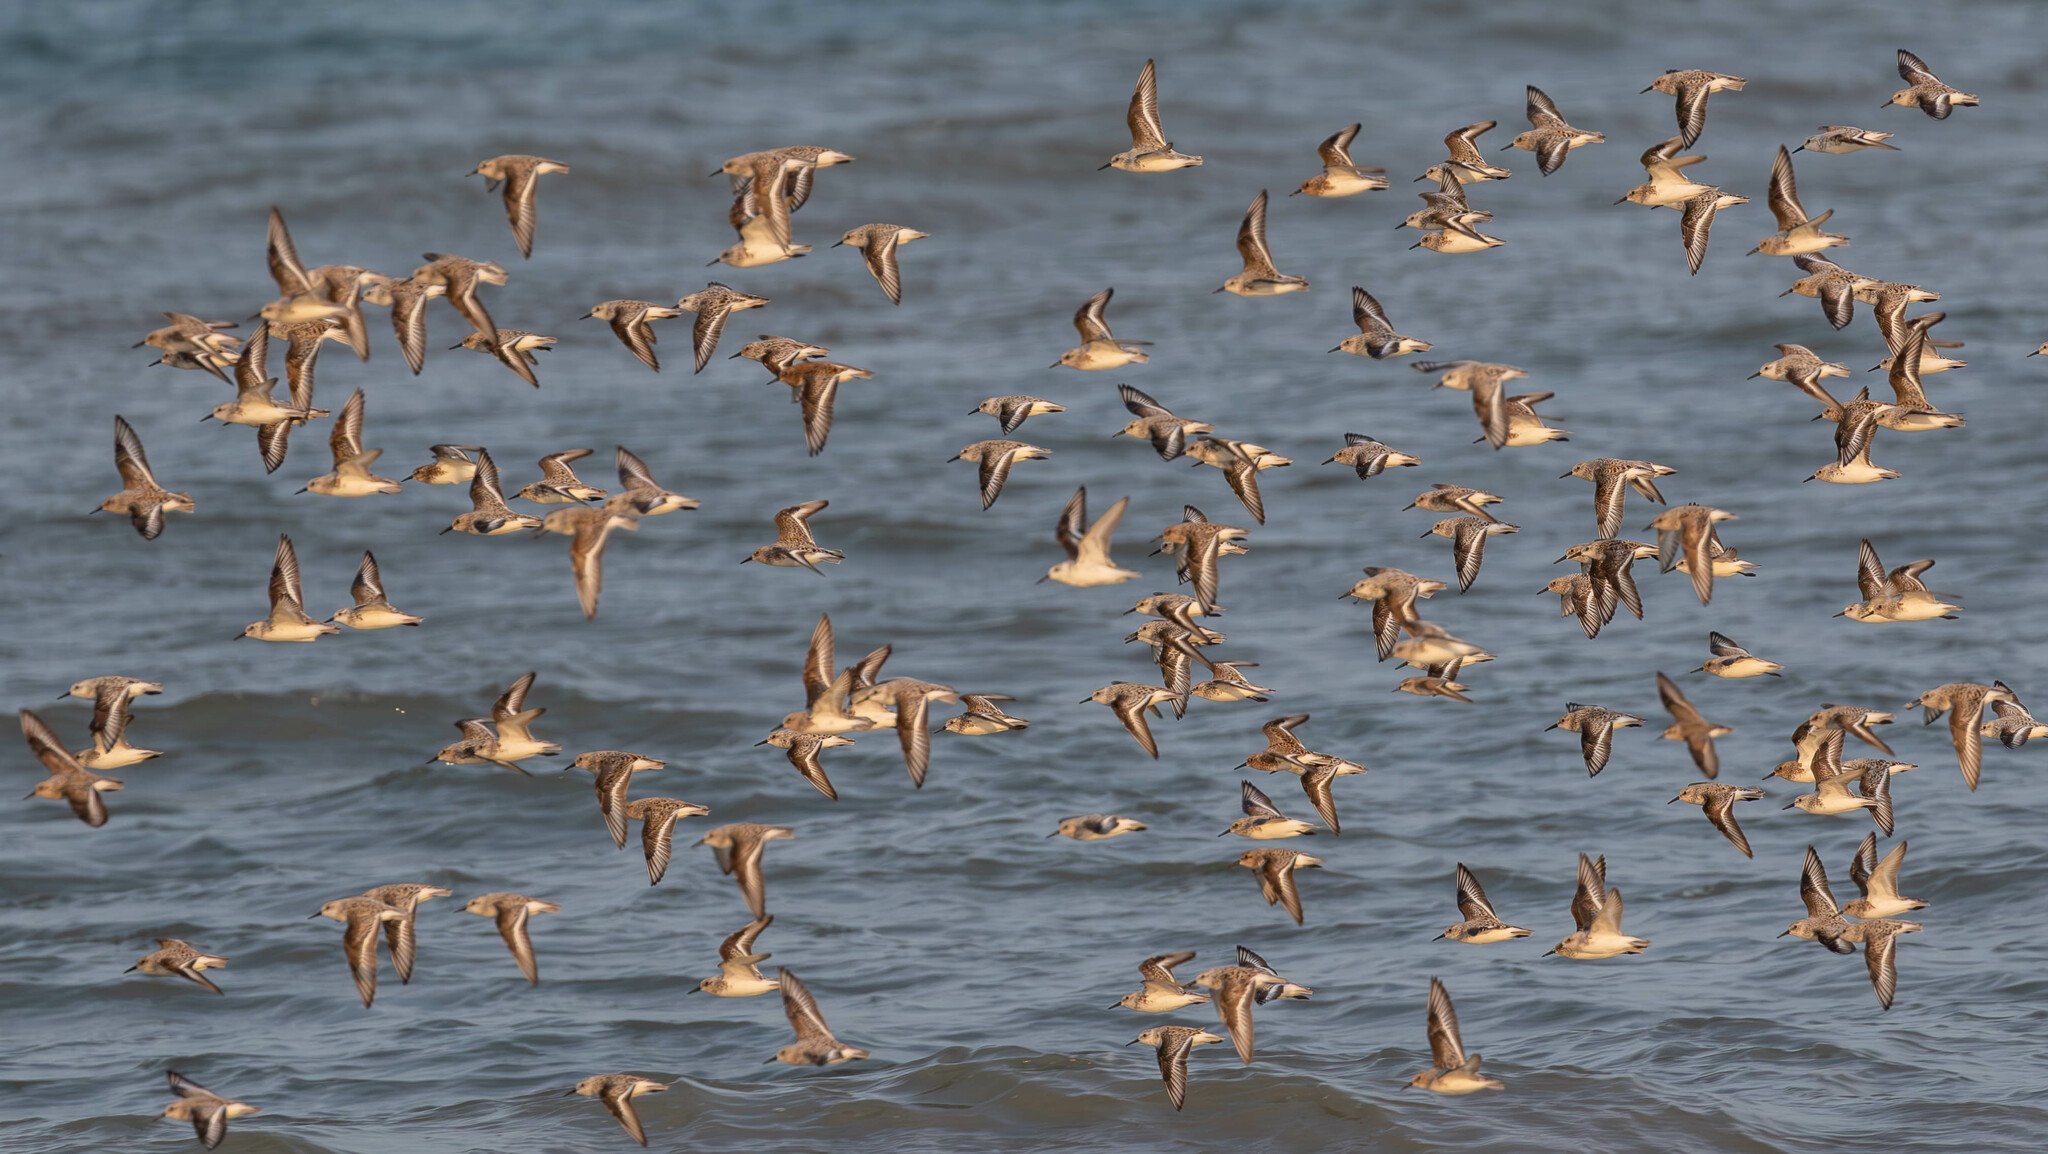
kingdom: Animalia
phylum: Chordata
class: Aves
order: Charadriiformes
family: Scolopacidae
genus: Calidris
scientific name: Calidris alba
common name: Sanderling
